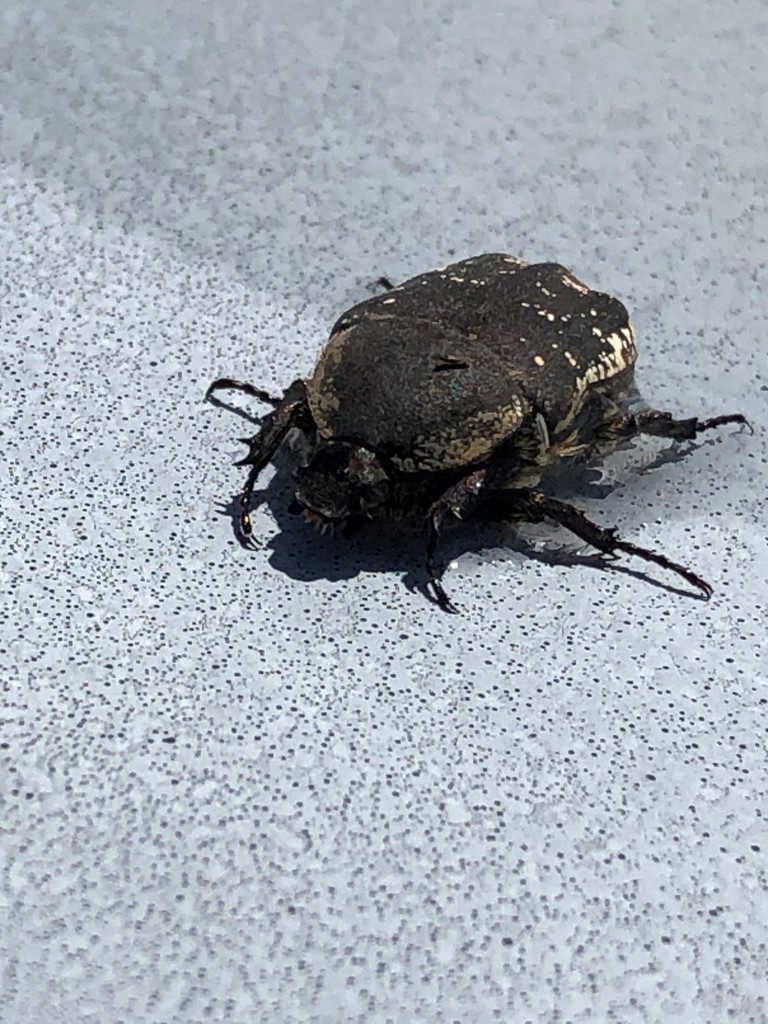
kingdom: Animalia
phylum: Arthropoda
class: Insecta
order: Coleoptera
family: Scarabaeidae
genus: Protaetia
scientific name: Protaetia oblonga
